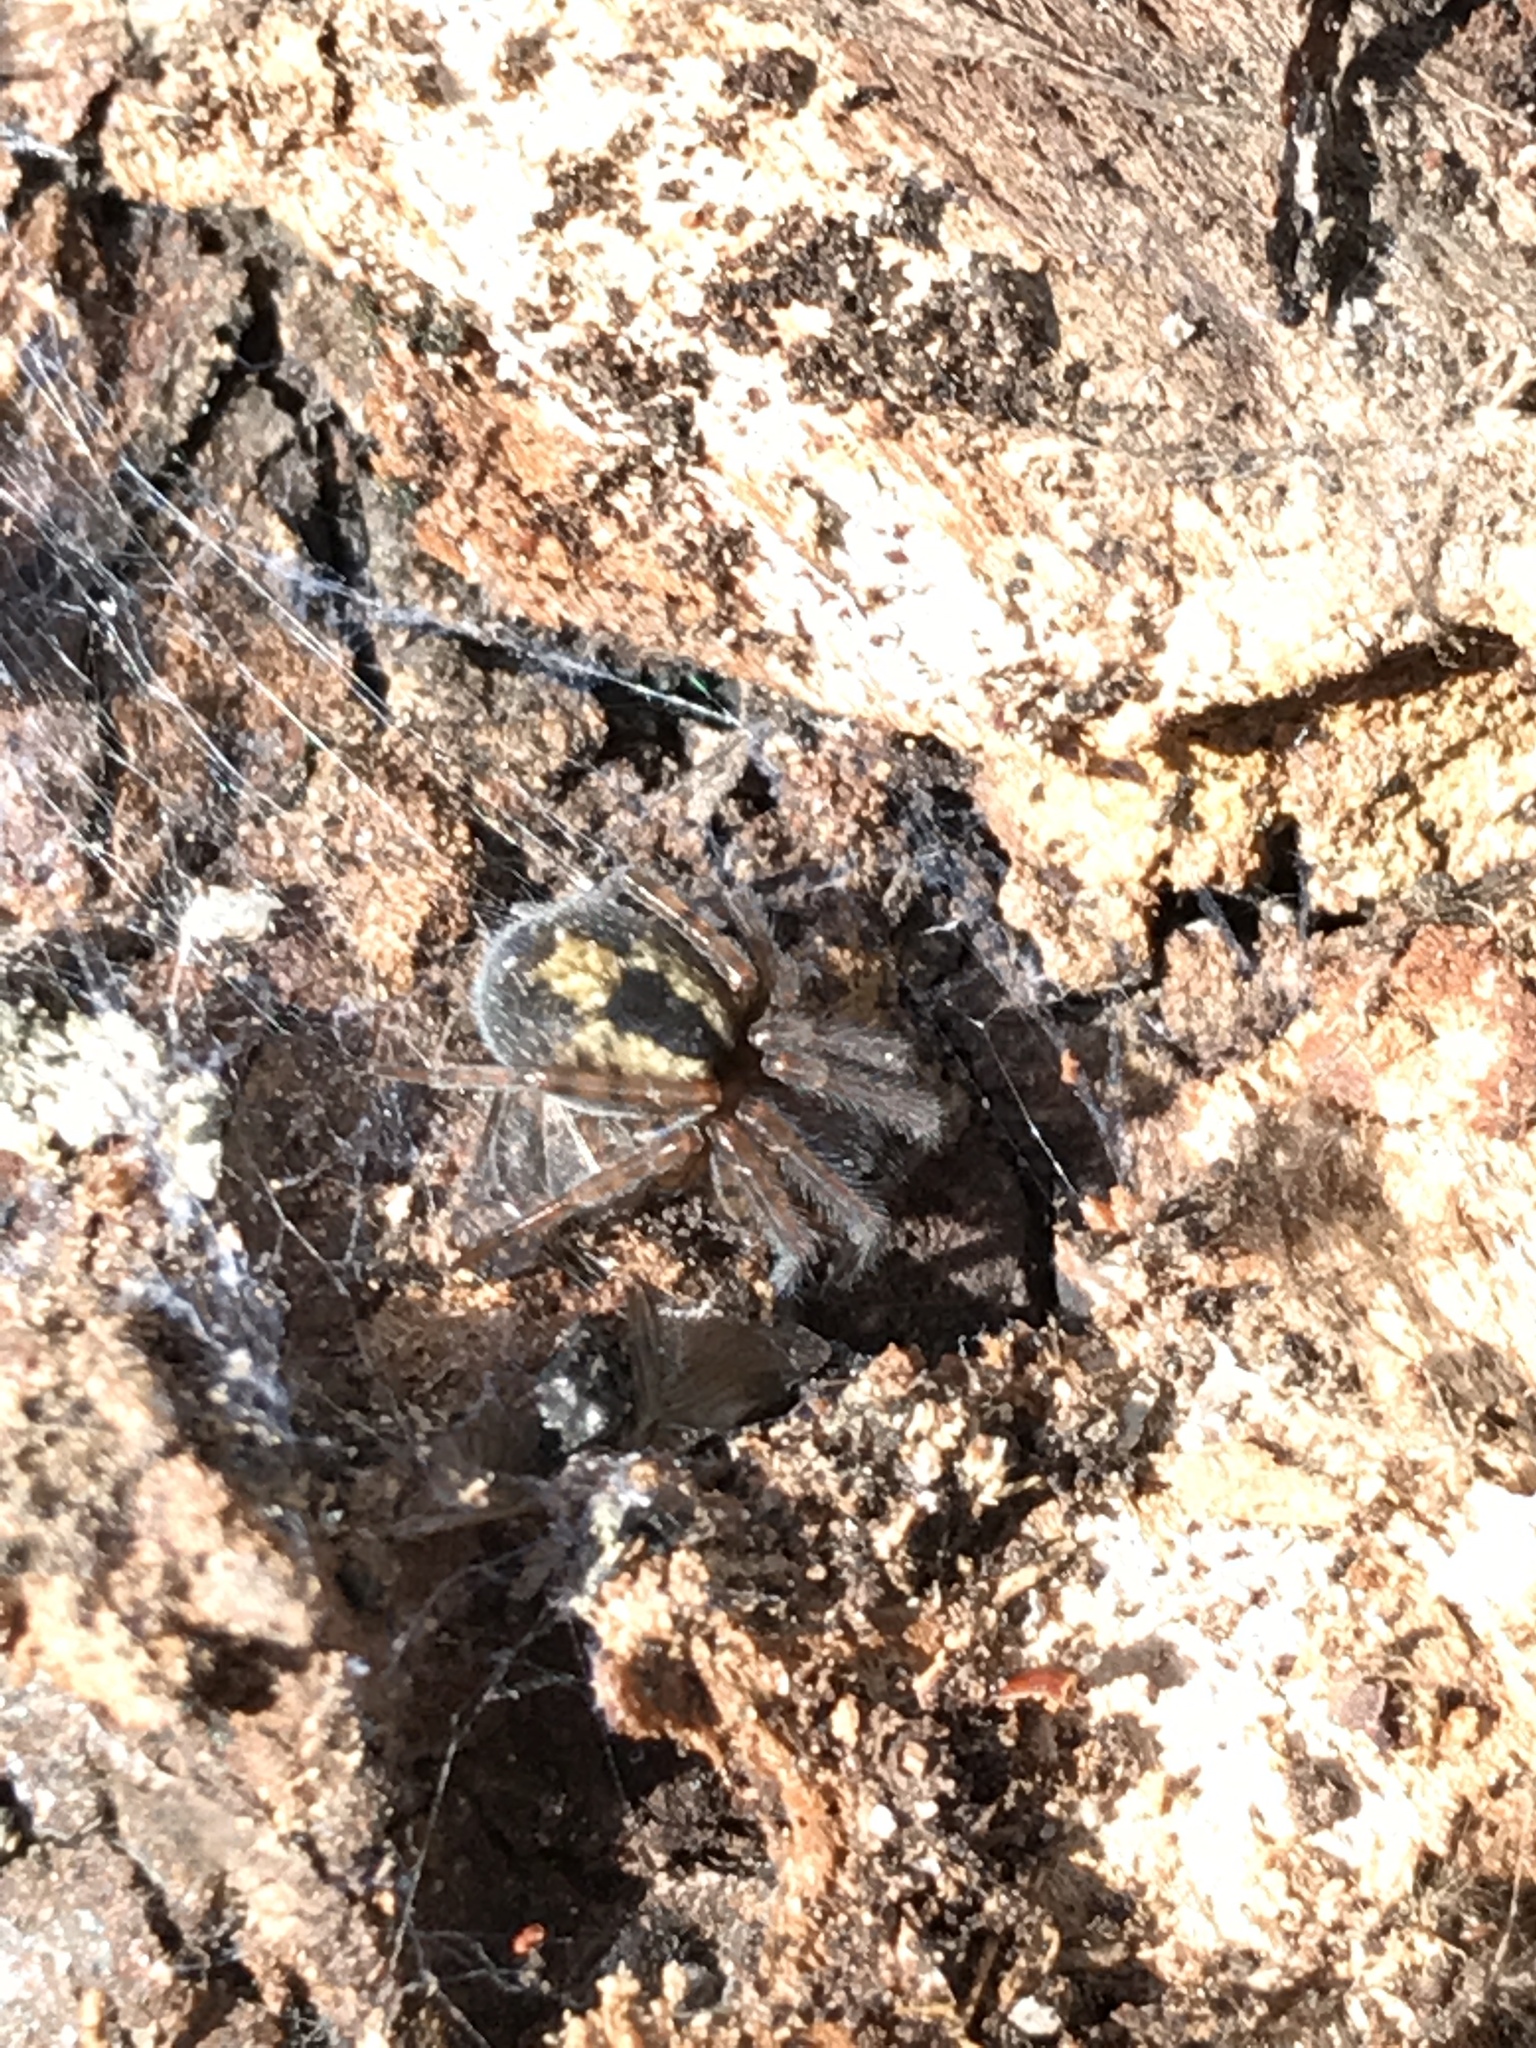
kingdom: Animalia
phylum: Arthropoda
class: Arachnida
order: Araneae
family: Amaurobiidae
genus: Amaurobius
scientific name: Amaurobius fenestralis
